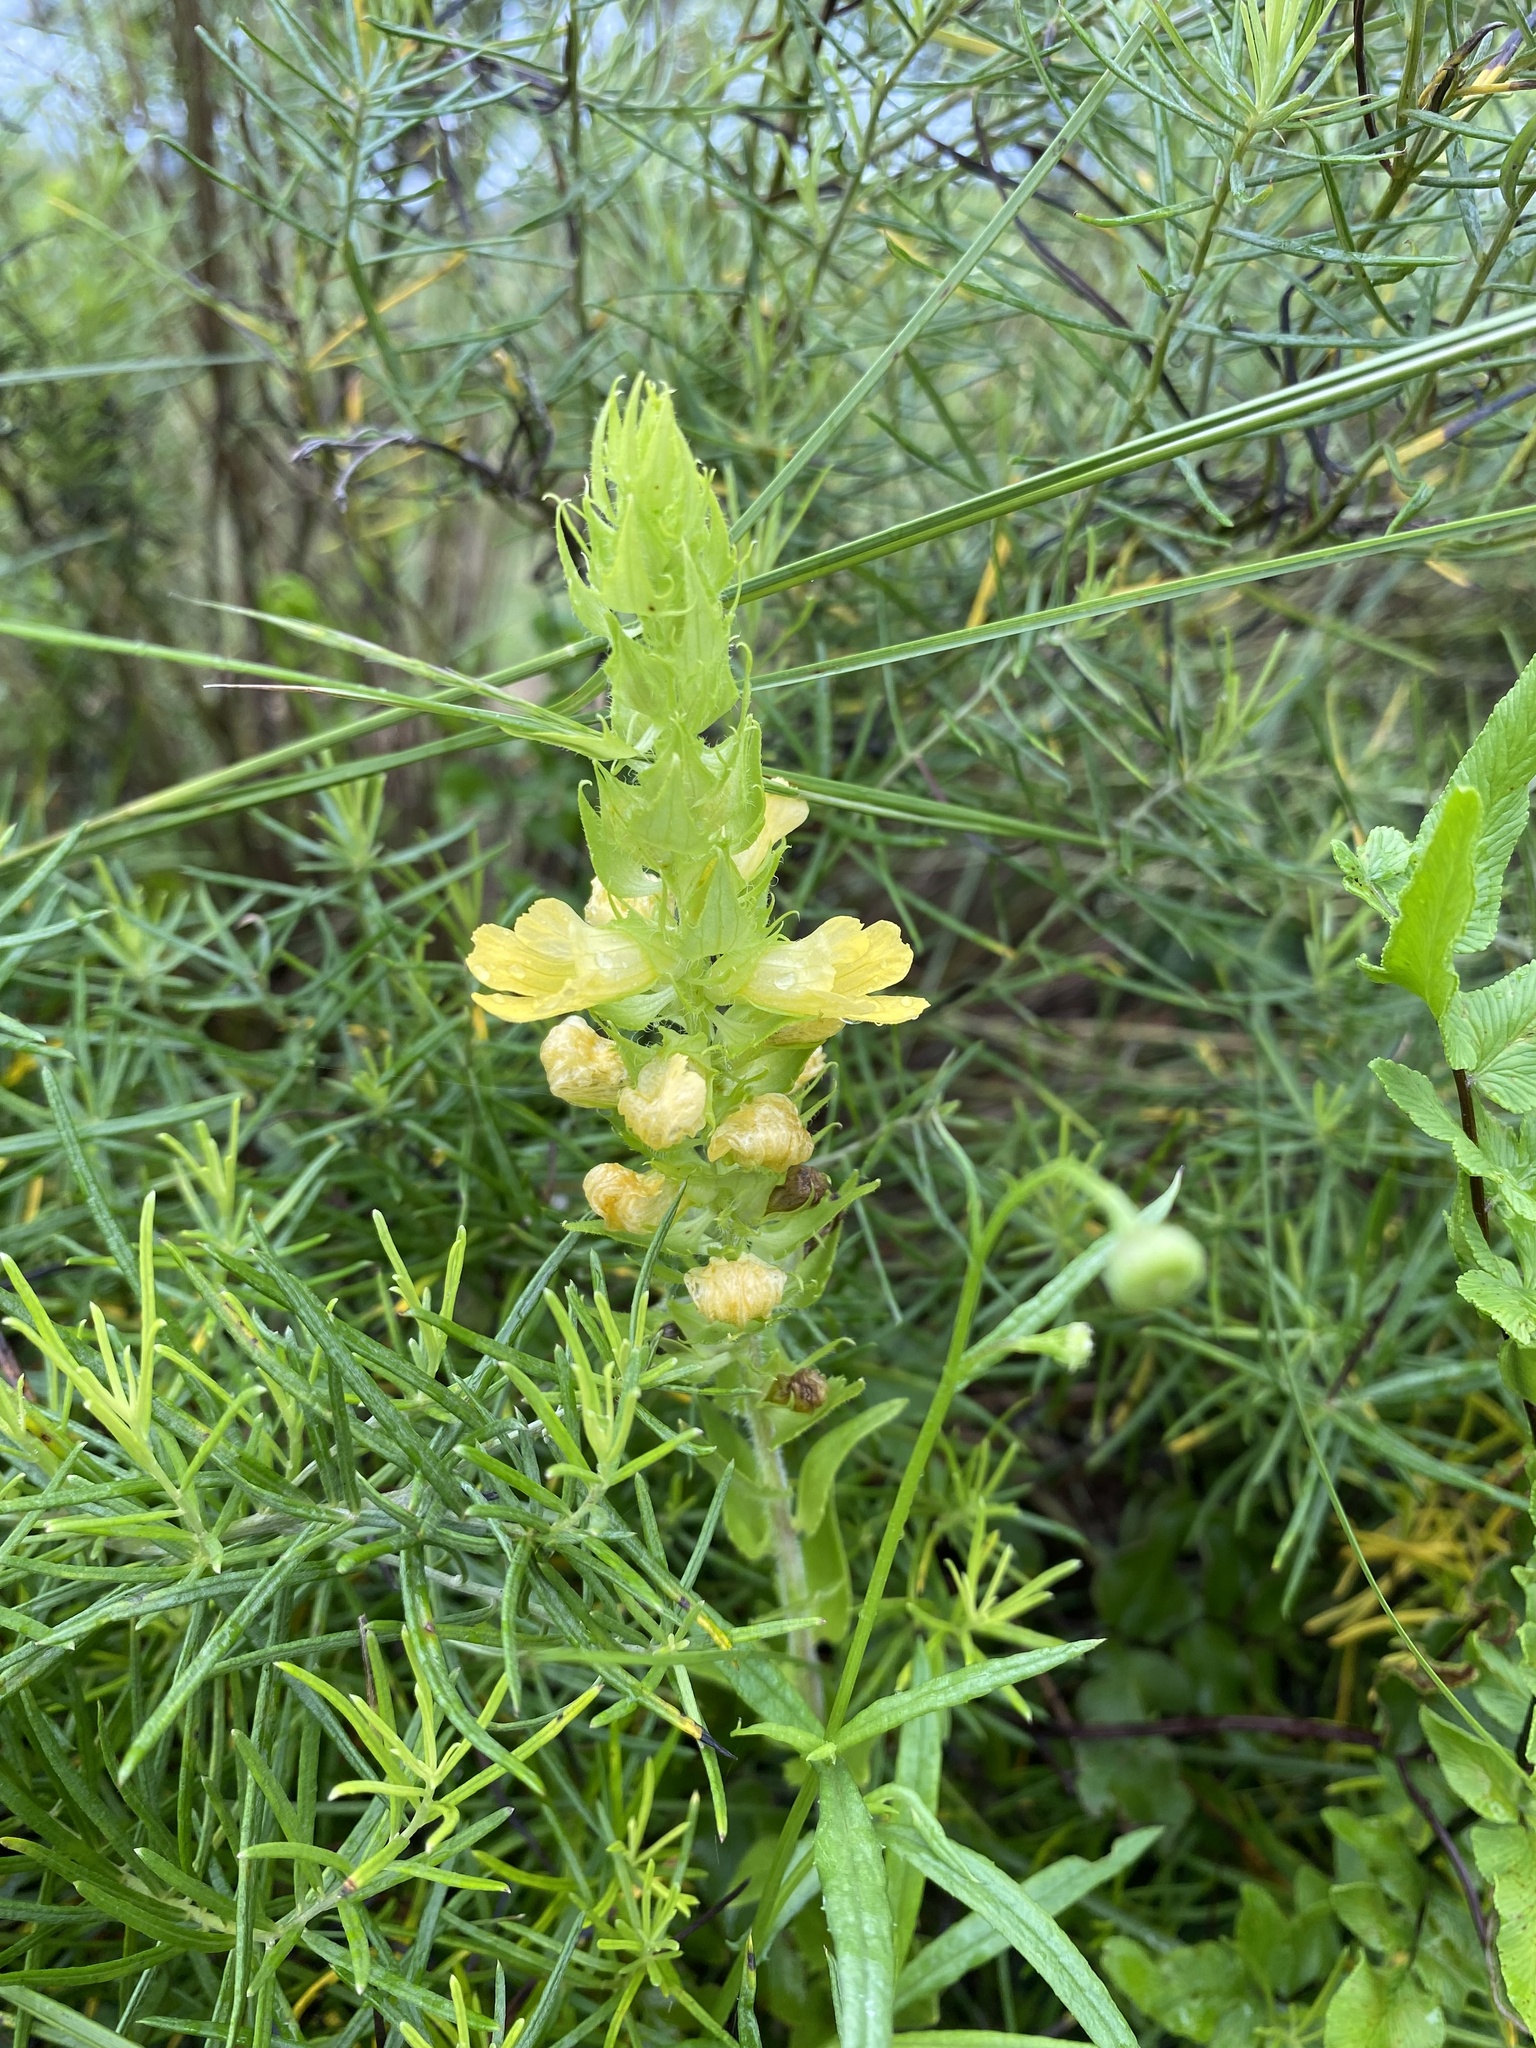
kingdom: Plantae
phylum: Tracheophyta
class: Magnoliopsida
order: Lamiales
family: Orobanchaceae
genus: Alectra
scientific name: Alectra sessiliflora
